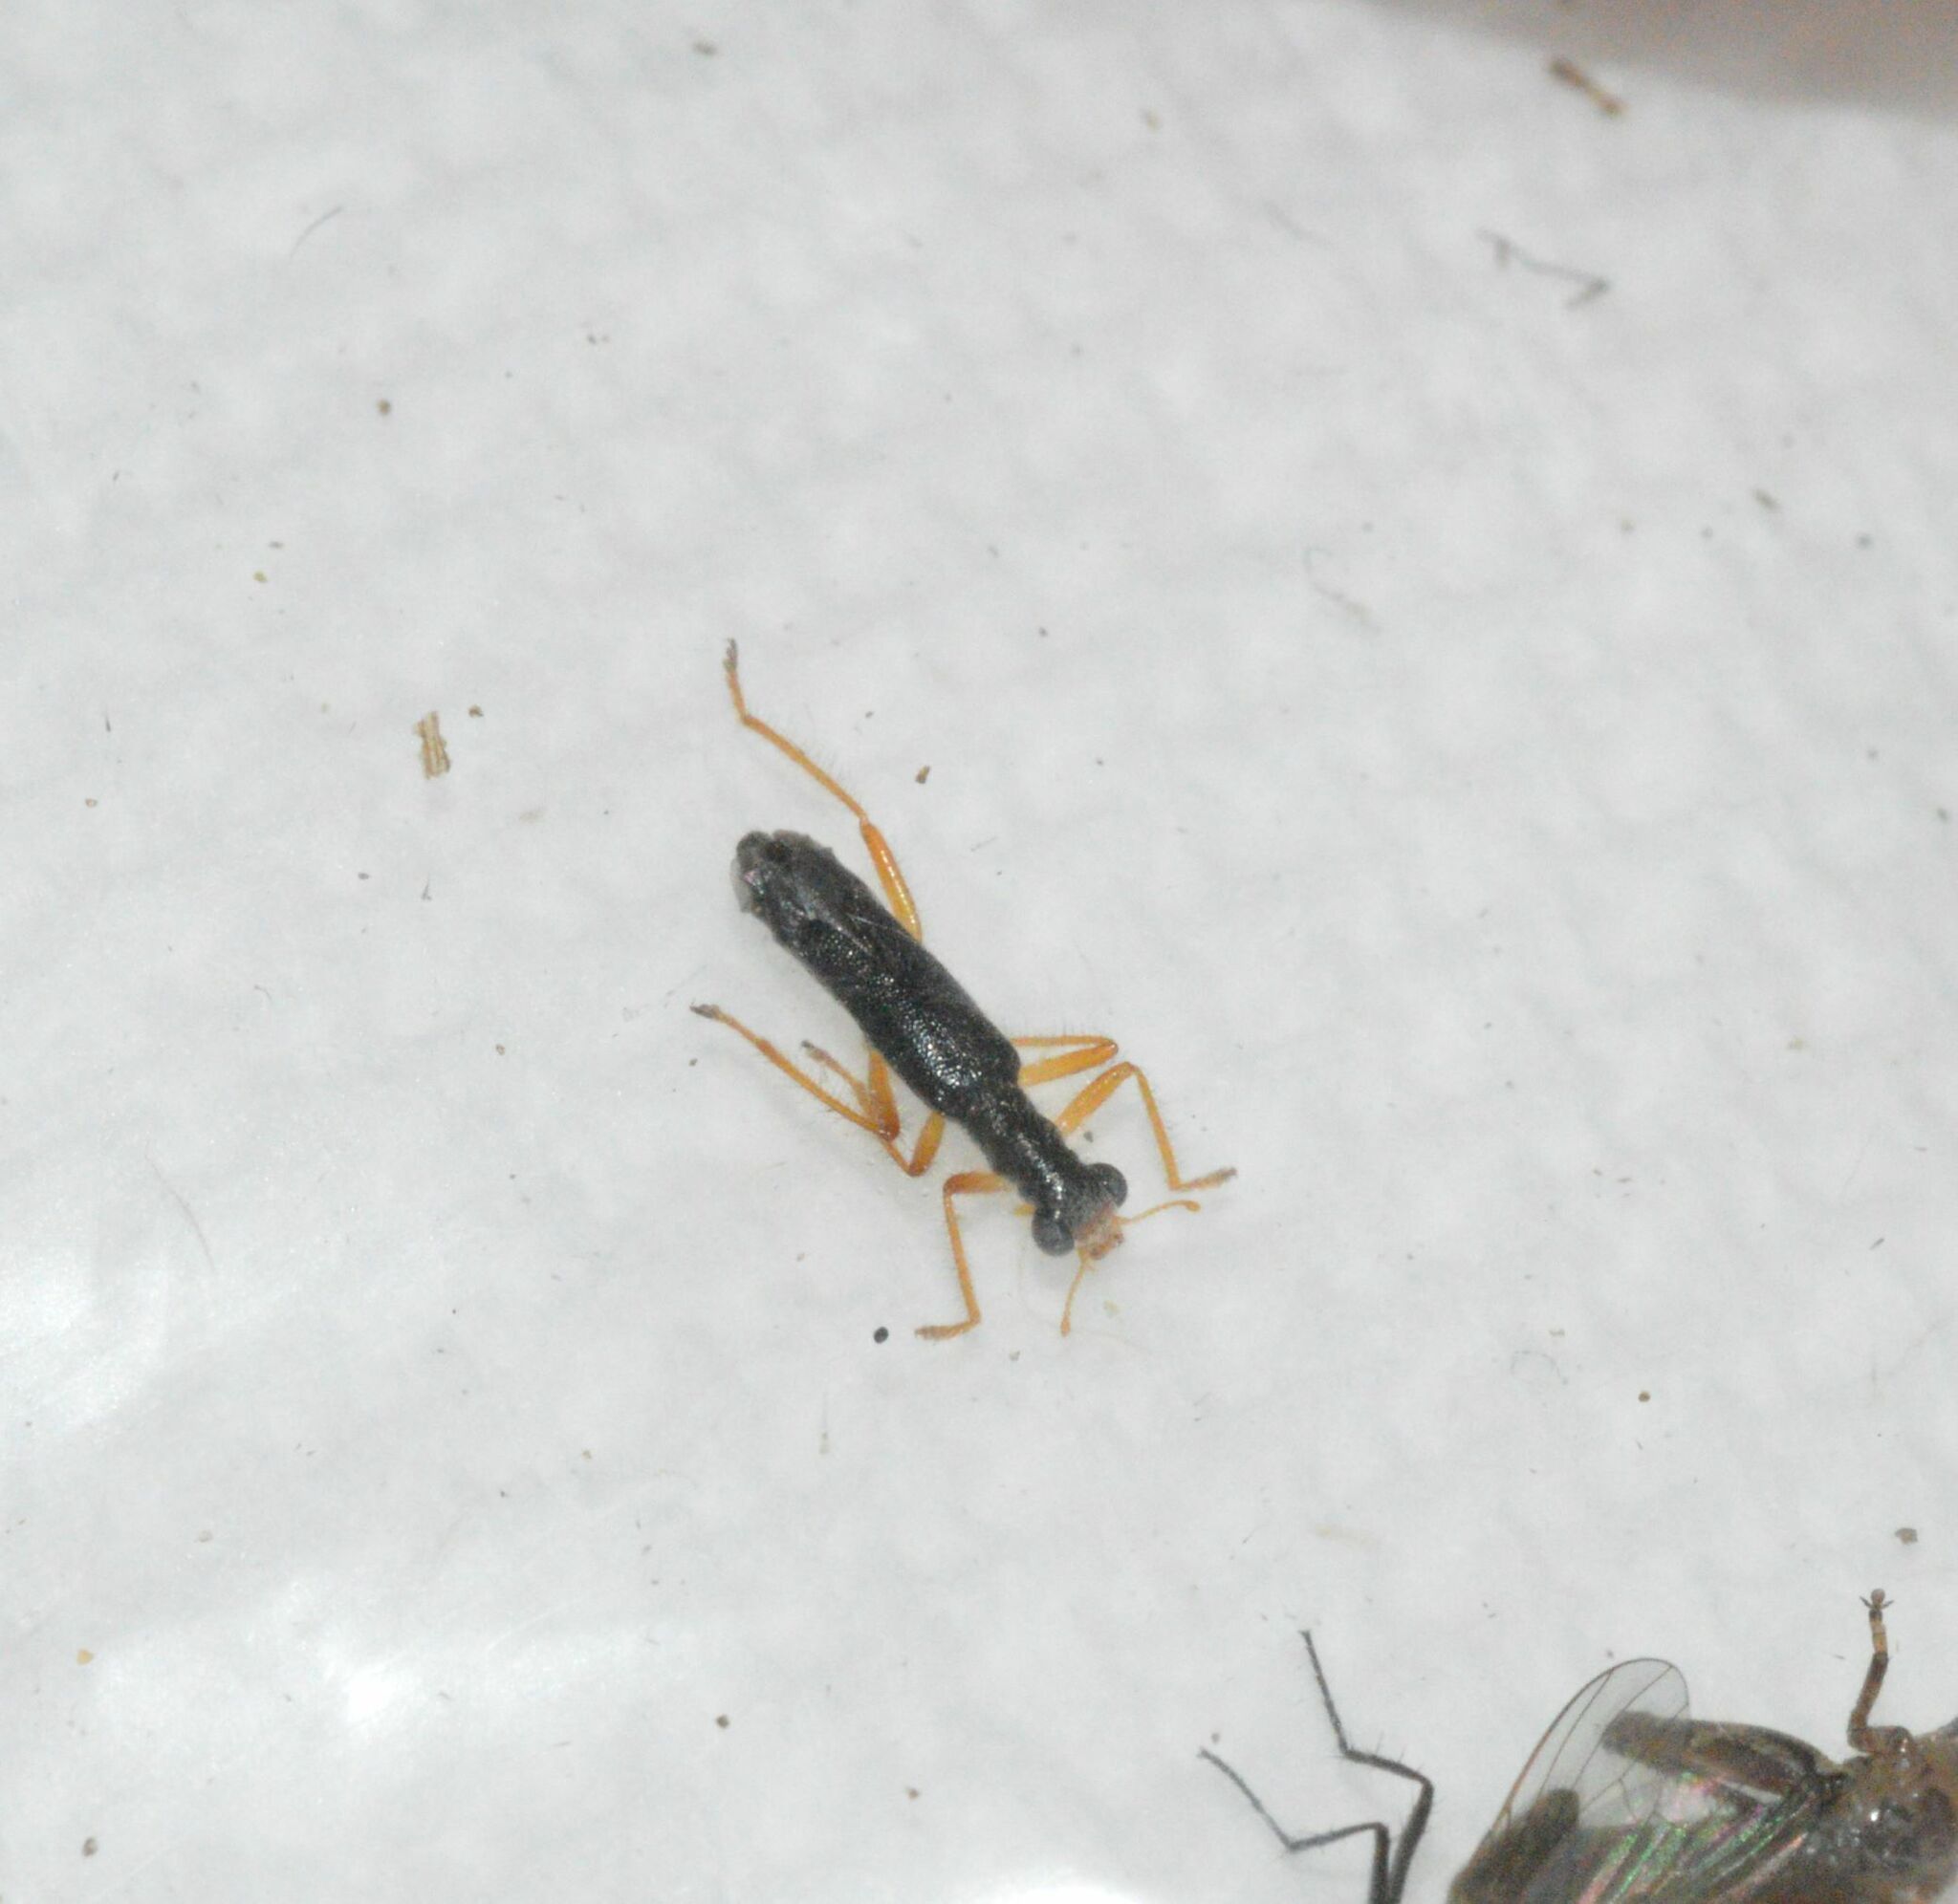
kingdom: Animalia
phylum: Arthropoda
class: Insecta
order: Coleoptera
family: Cleridae
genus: Isohydnocera
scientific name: Isohydnocera tabida
